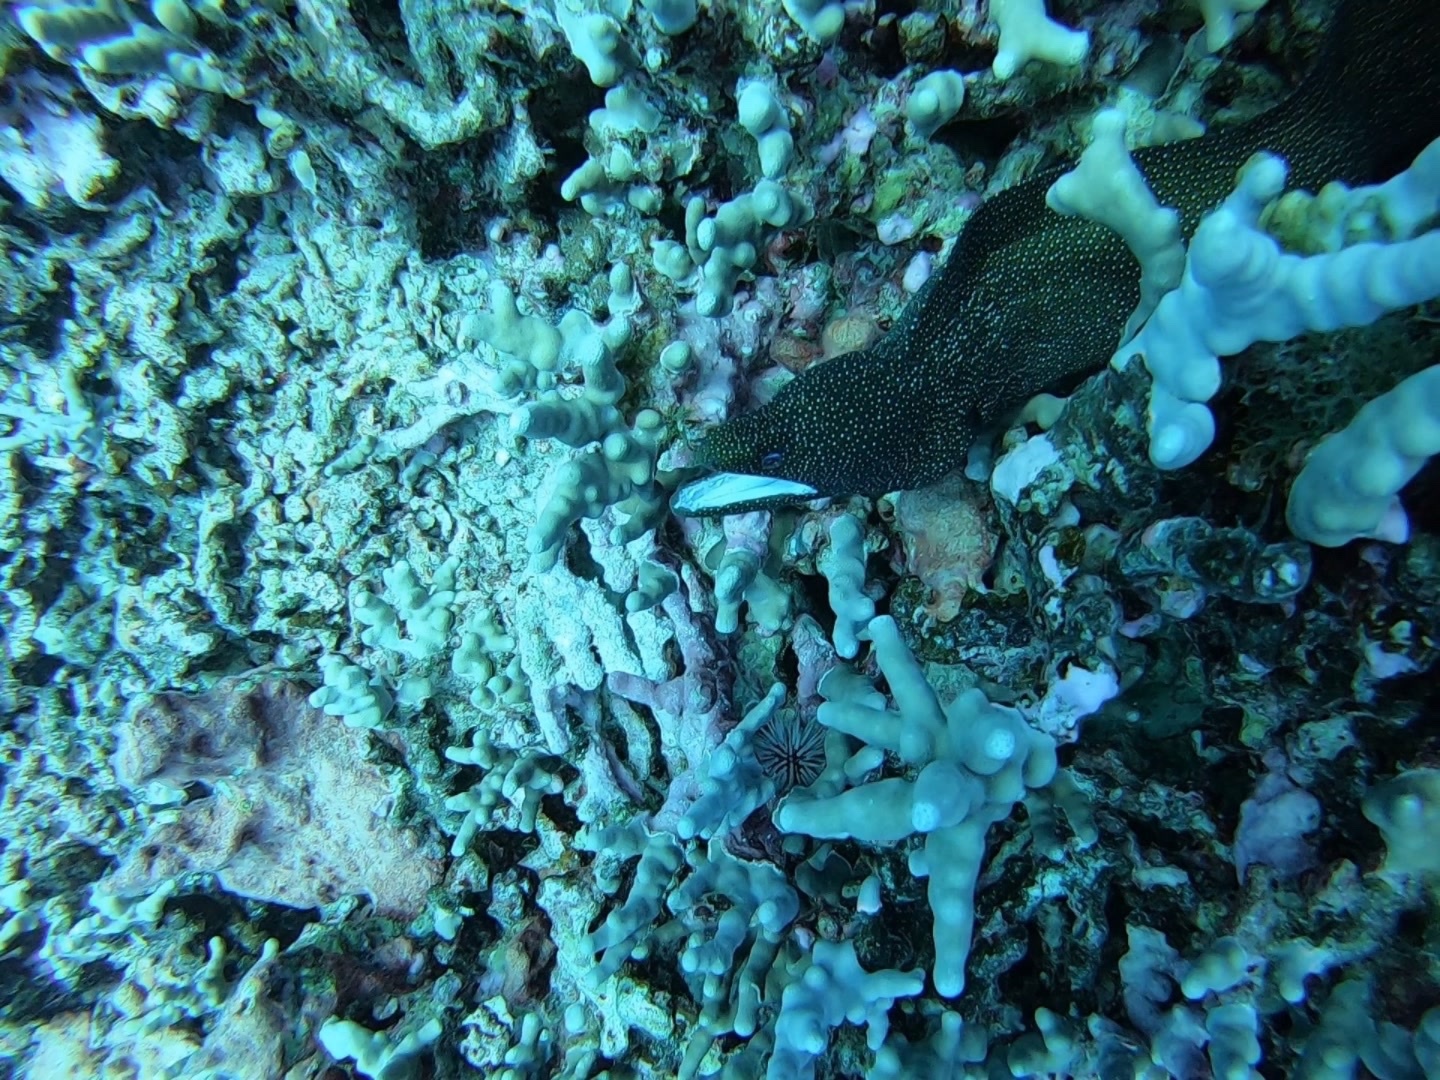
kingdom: Animalia
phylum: Chordata
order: Anguilliformes
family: Muraenidae
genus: Gymnothorax
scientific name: Gymnothorax meleagris
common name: Guineafowl moray
